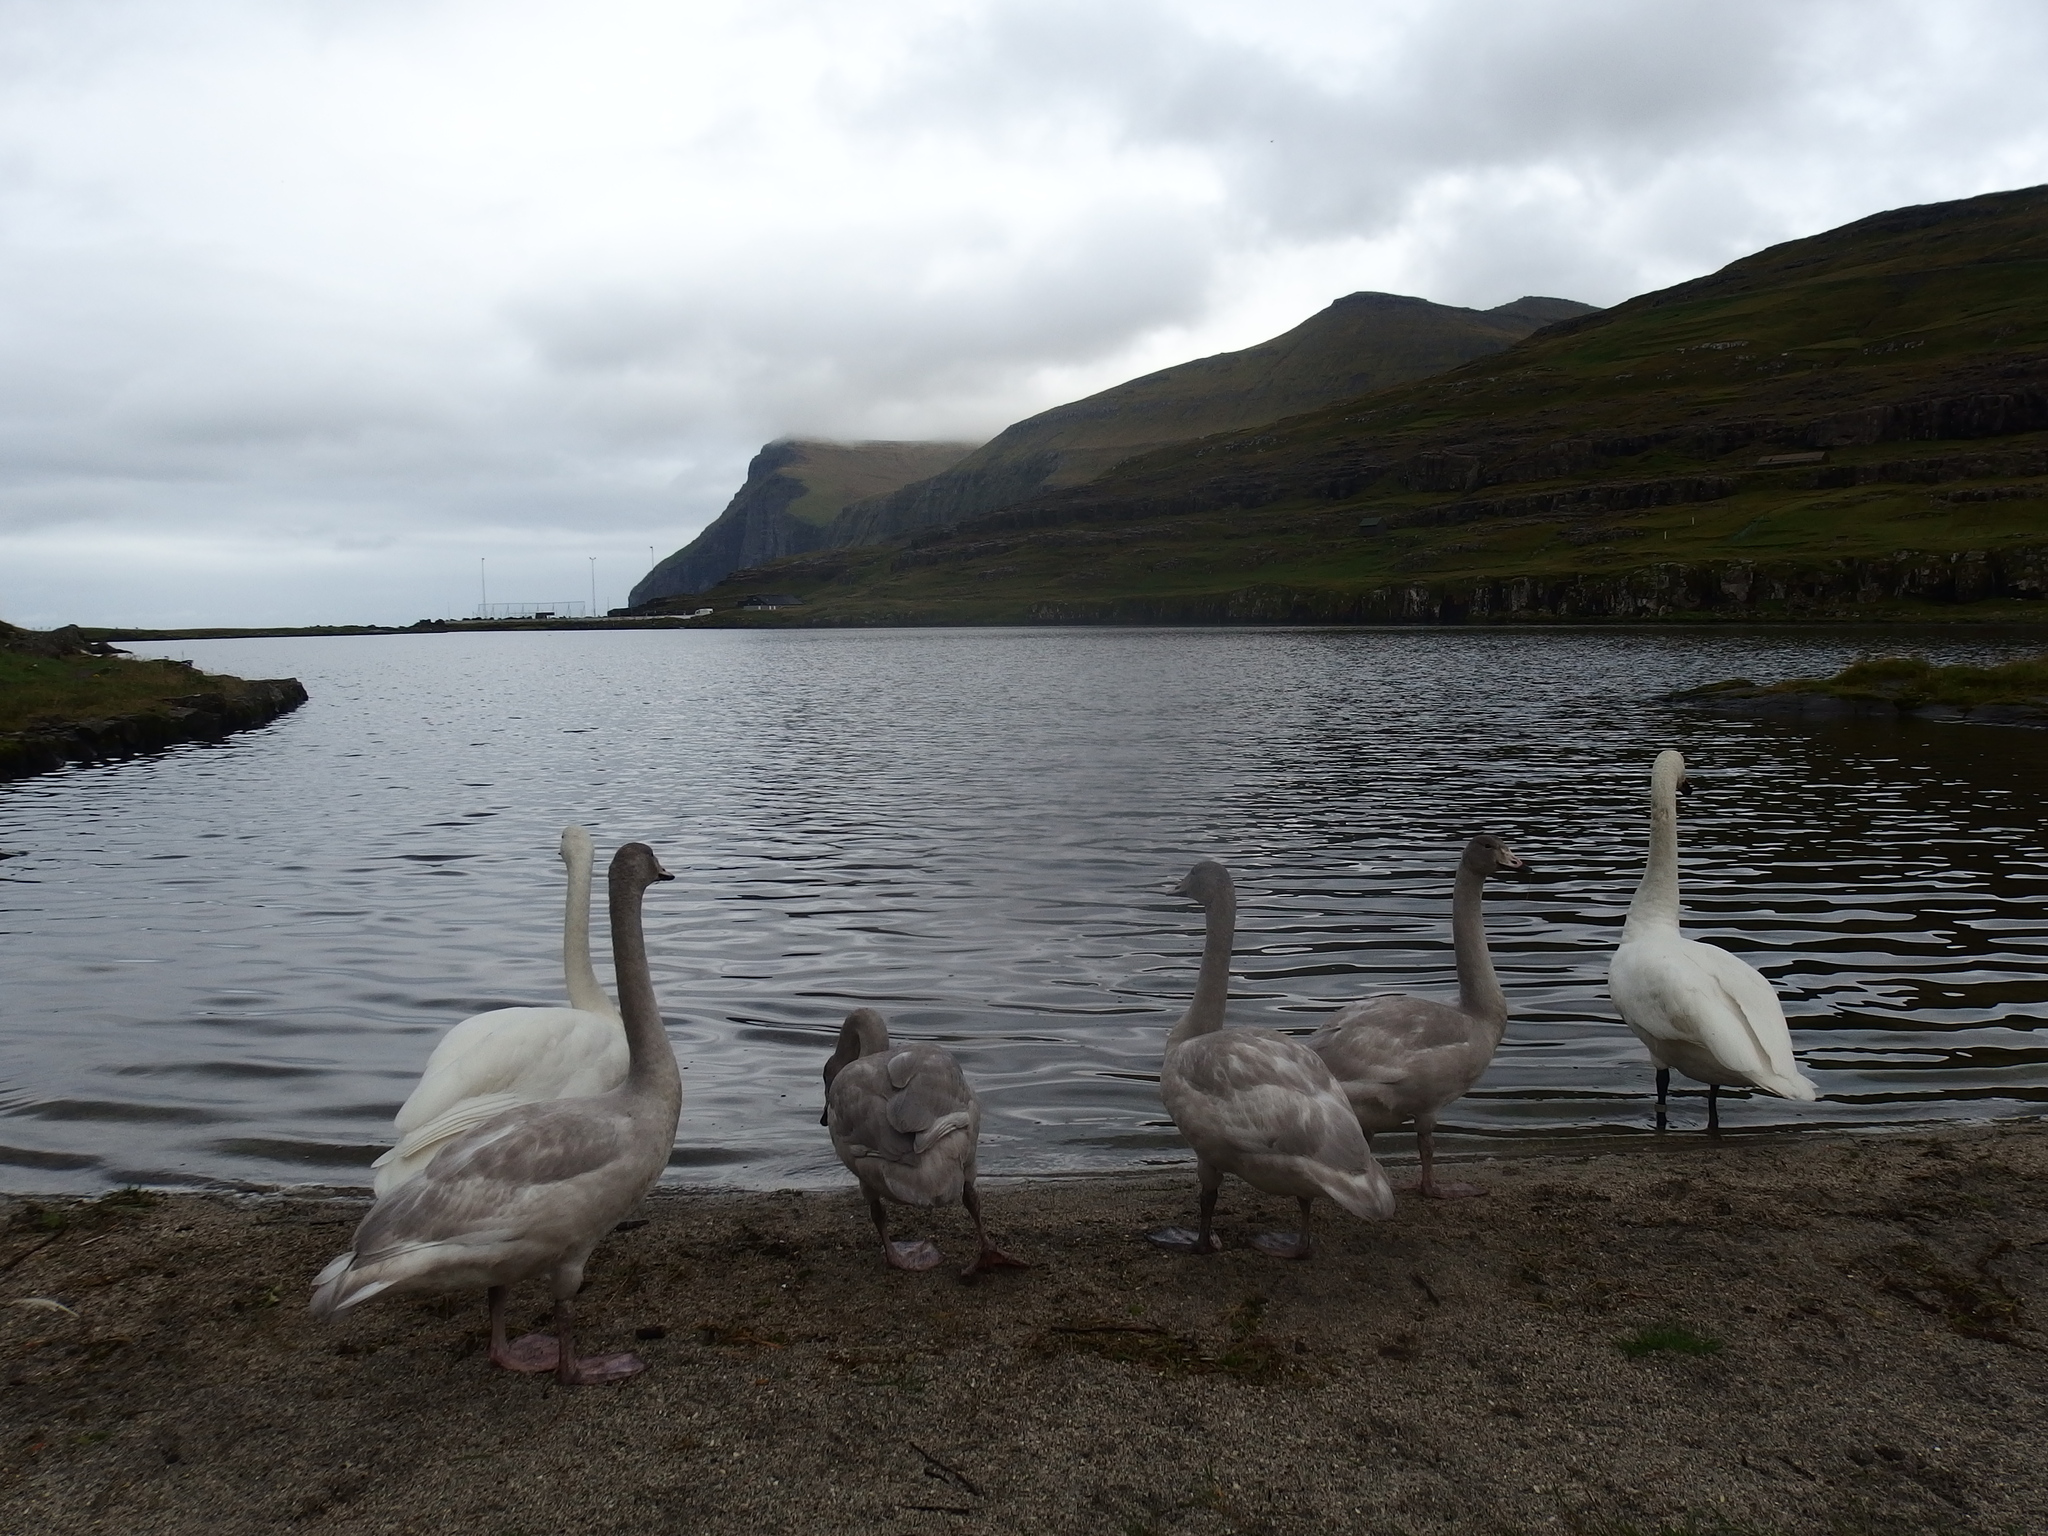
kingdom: Animalia
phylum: Chordata
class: Aves
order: Anseriformes
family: Anatidae
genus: Cygnus
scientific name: Cygnus cygnus
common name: Whooper swan
